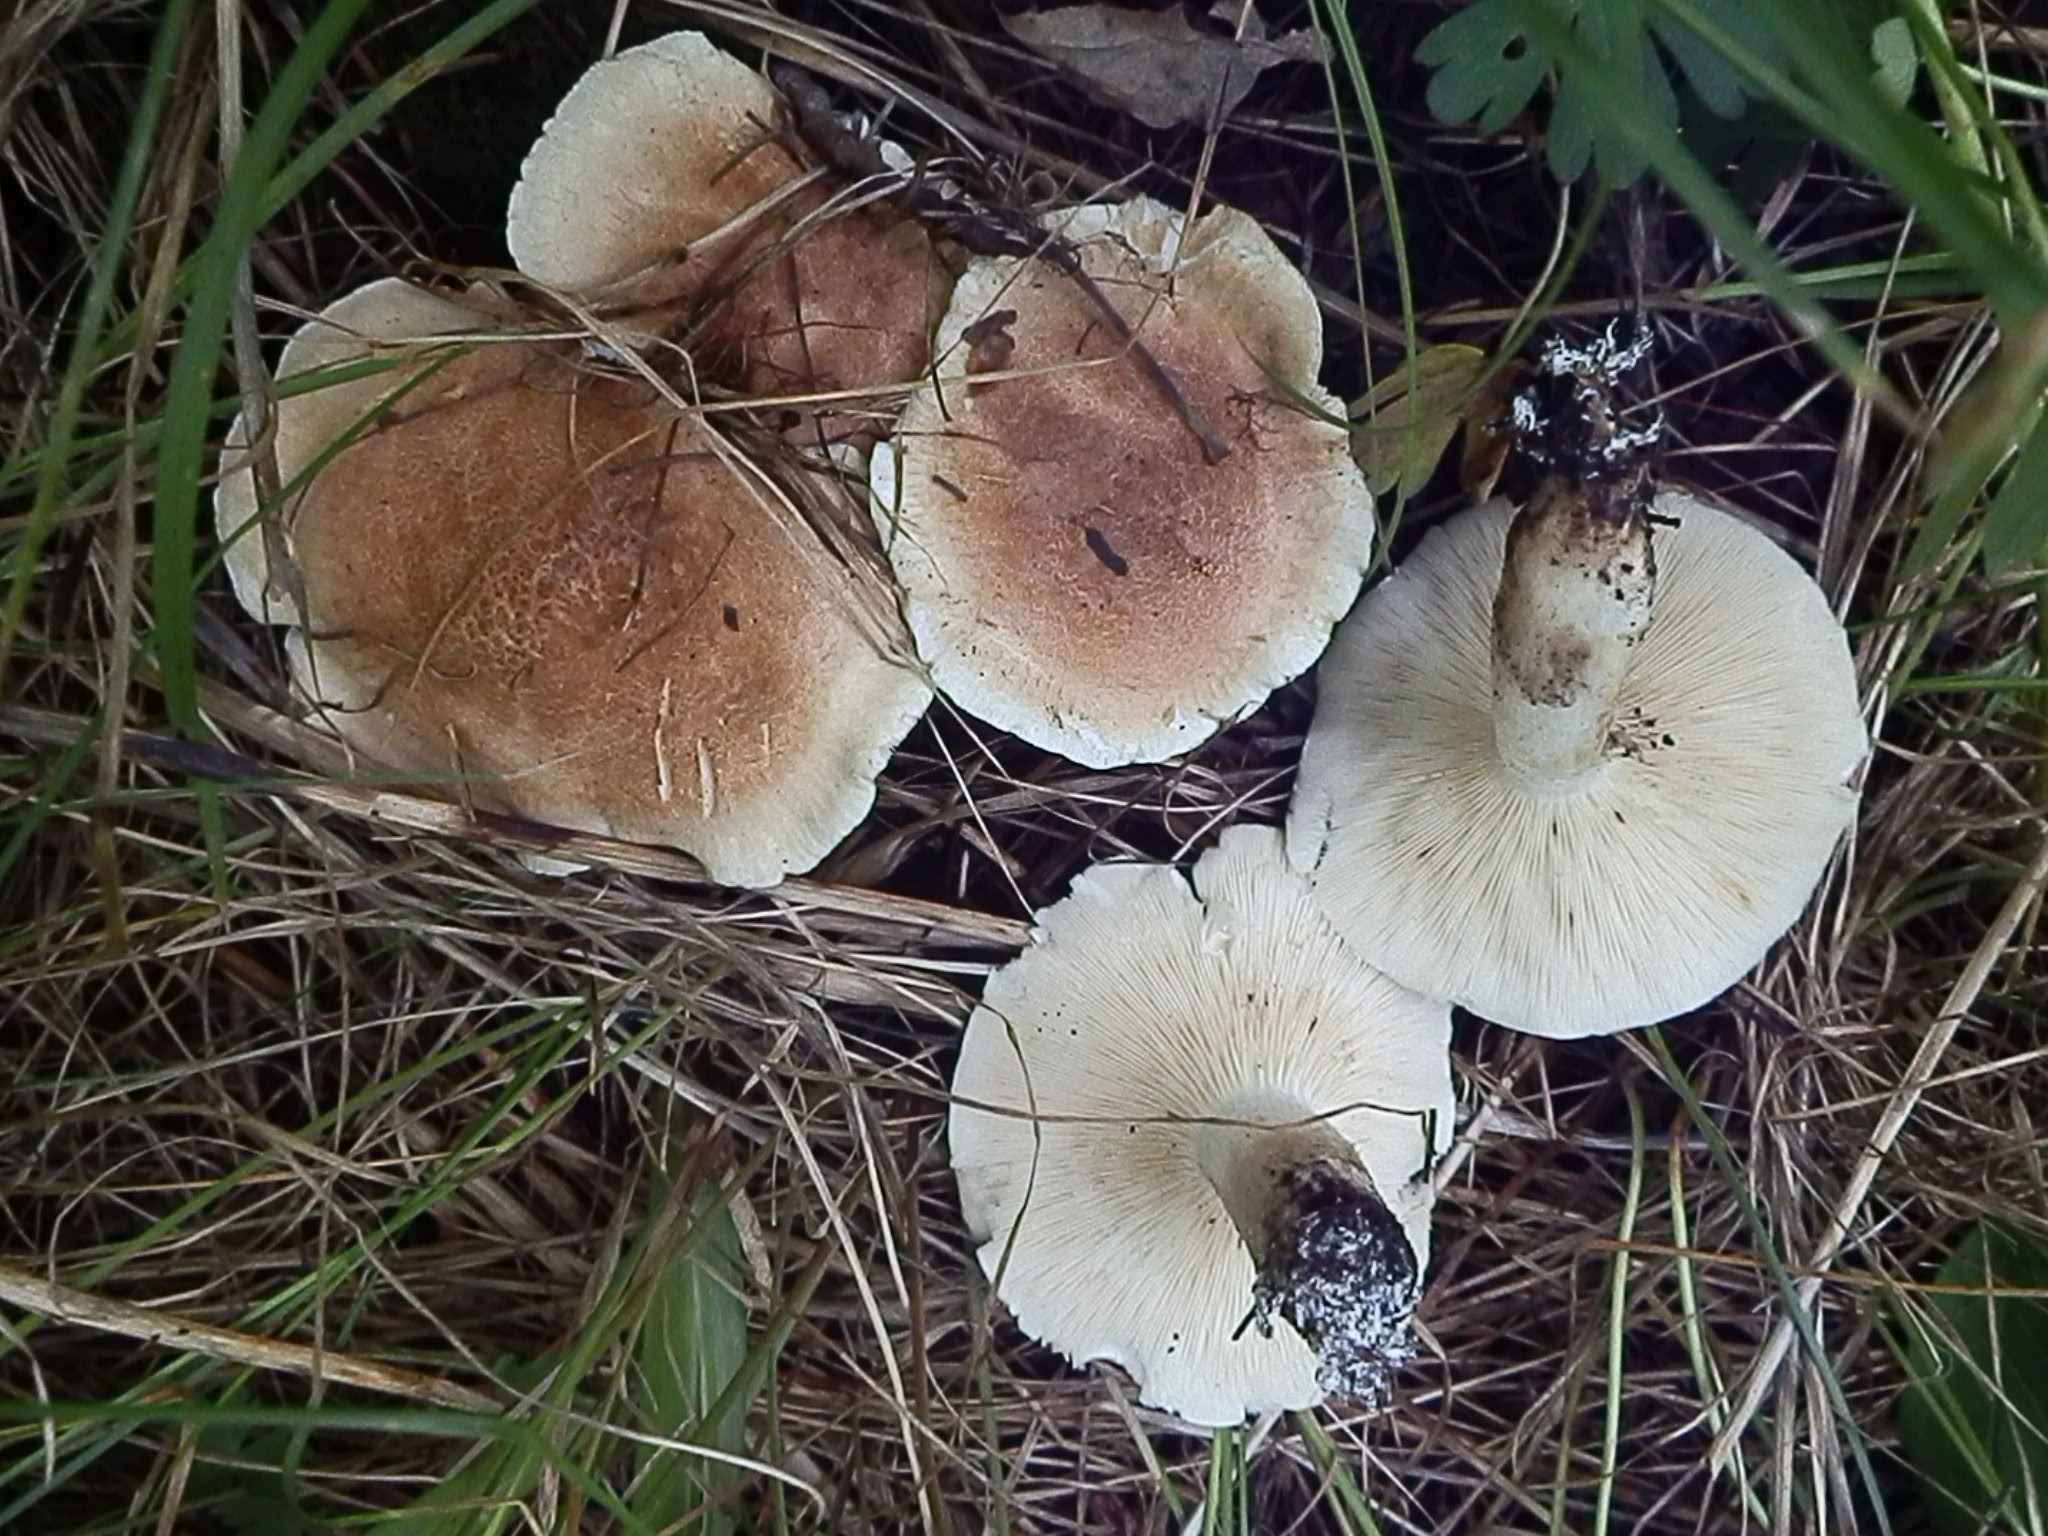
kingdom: Fungi
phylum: Basidiomycota
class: Agaricomycetes
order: Agaricales
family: Tricholomataceae
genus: Leucopaxillus
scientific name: Leucopaxillus gentianeus
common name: Bitter funnel
